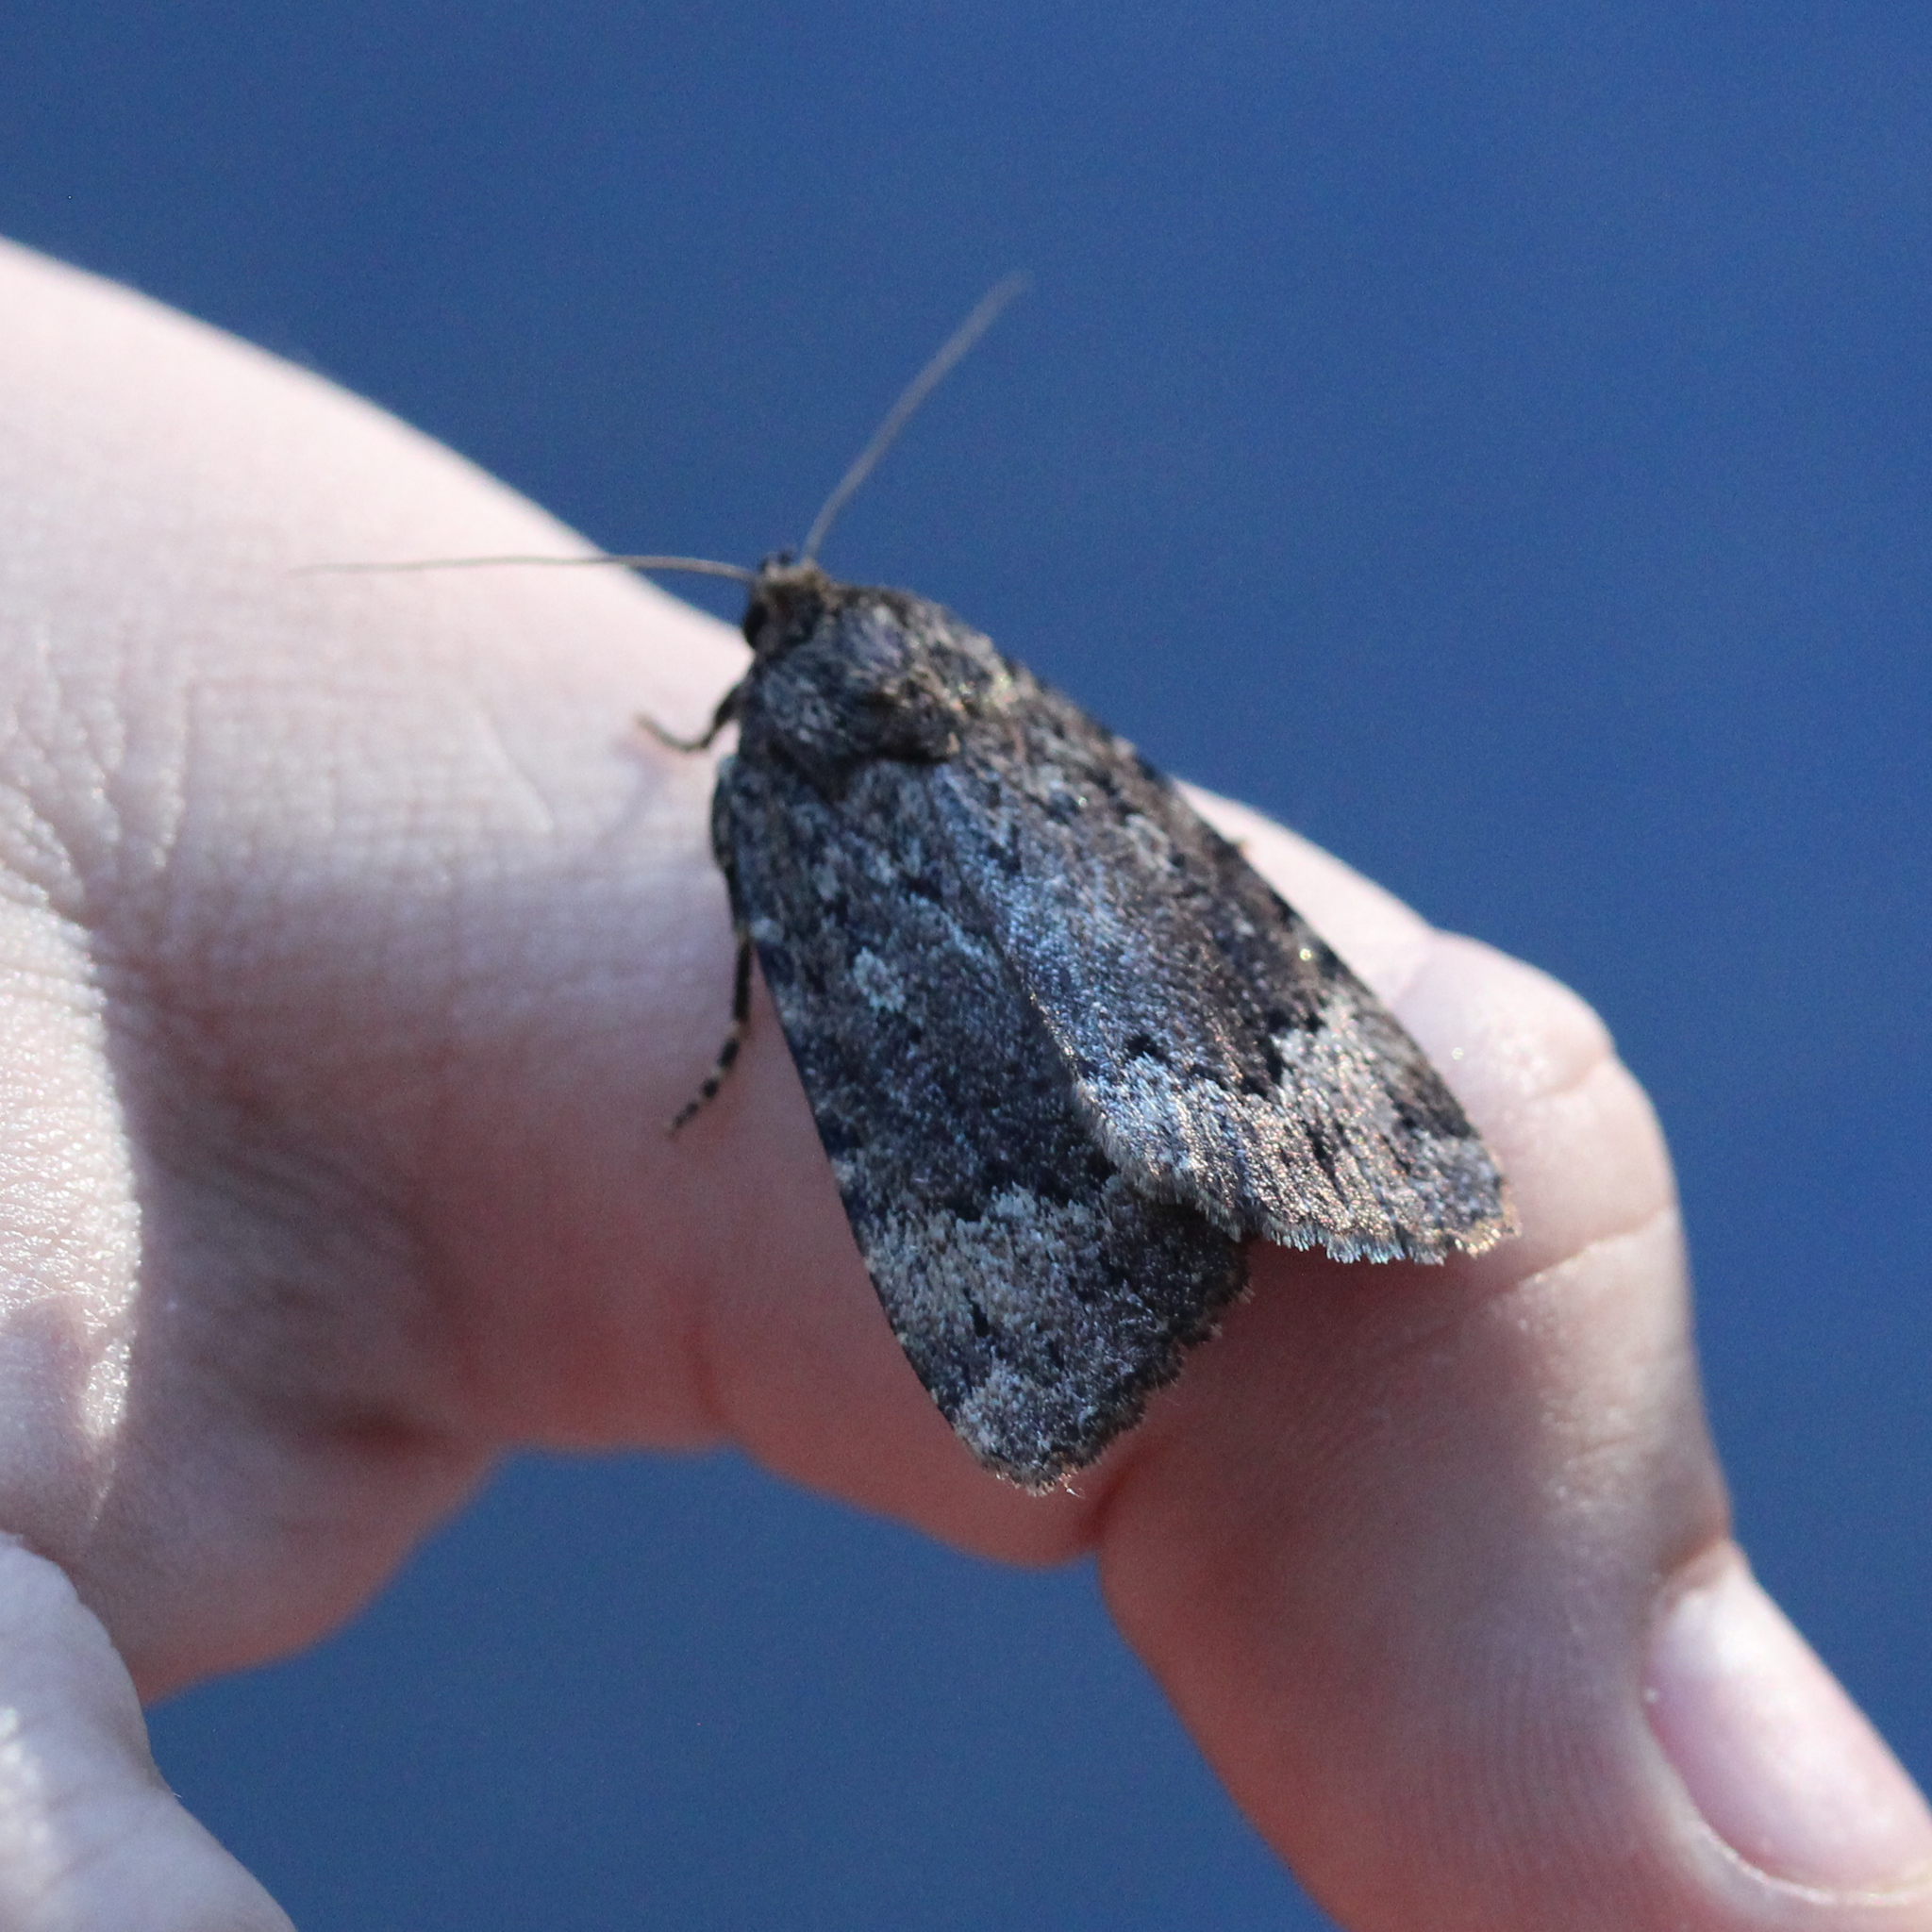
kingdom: Animalia
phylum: Arthropoda
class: Insecta
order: Lepidoptera
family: Noctuidae
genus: Amphipyra
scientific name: Amphipyra pyramidoides
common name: American copper underwing
